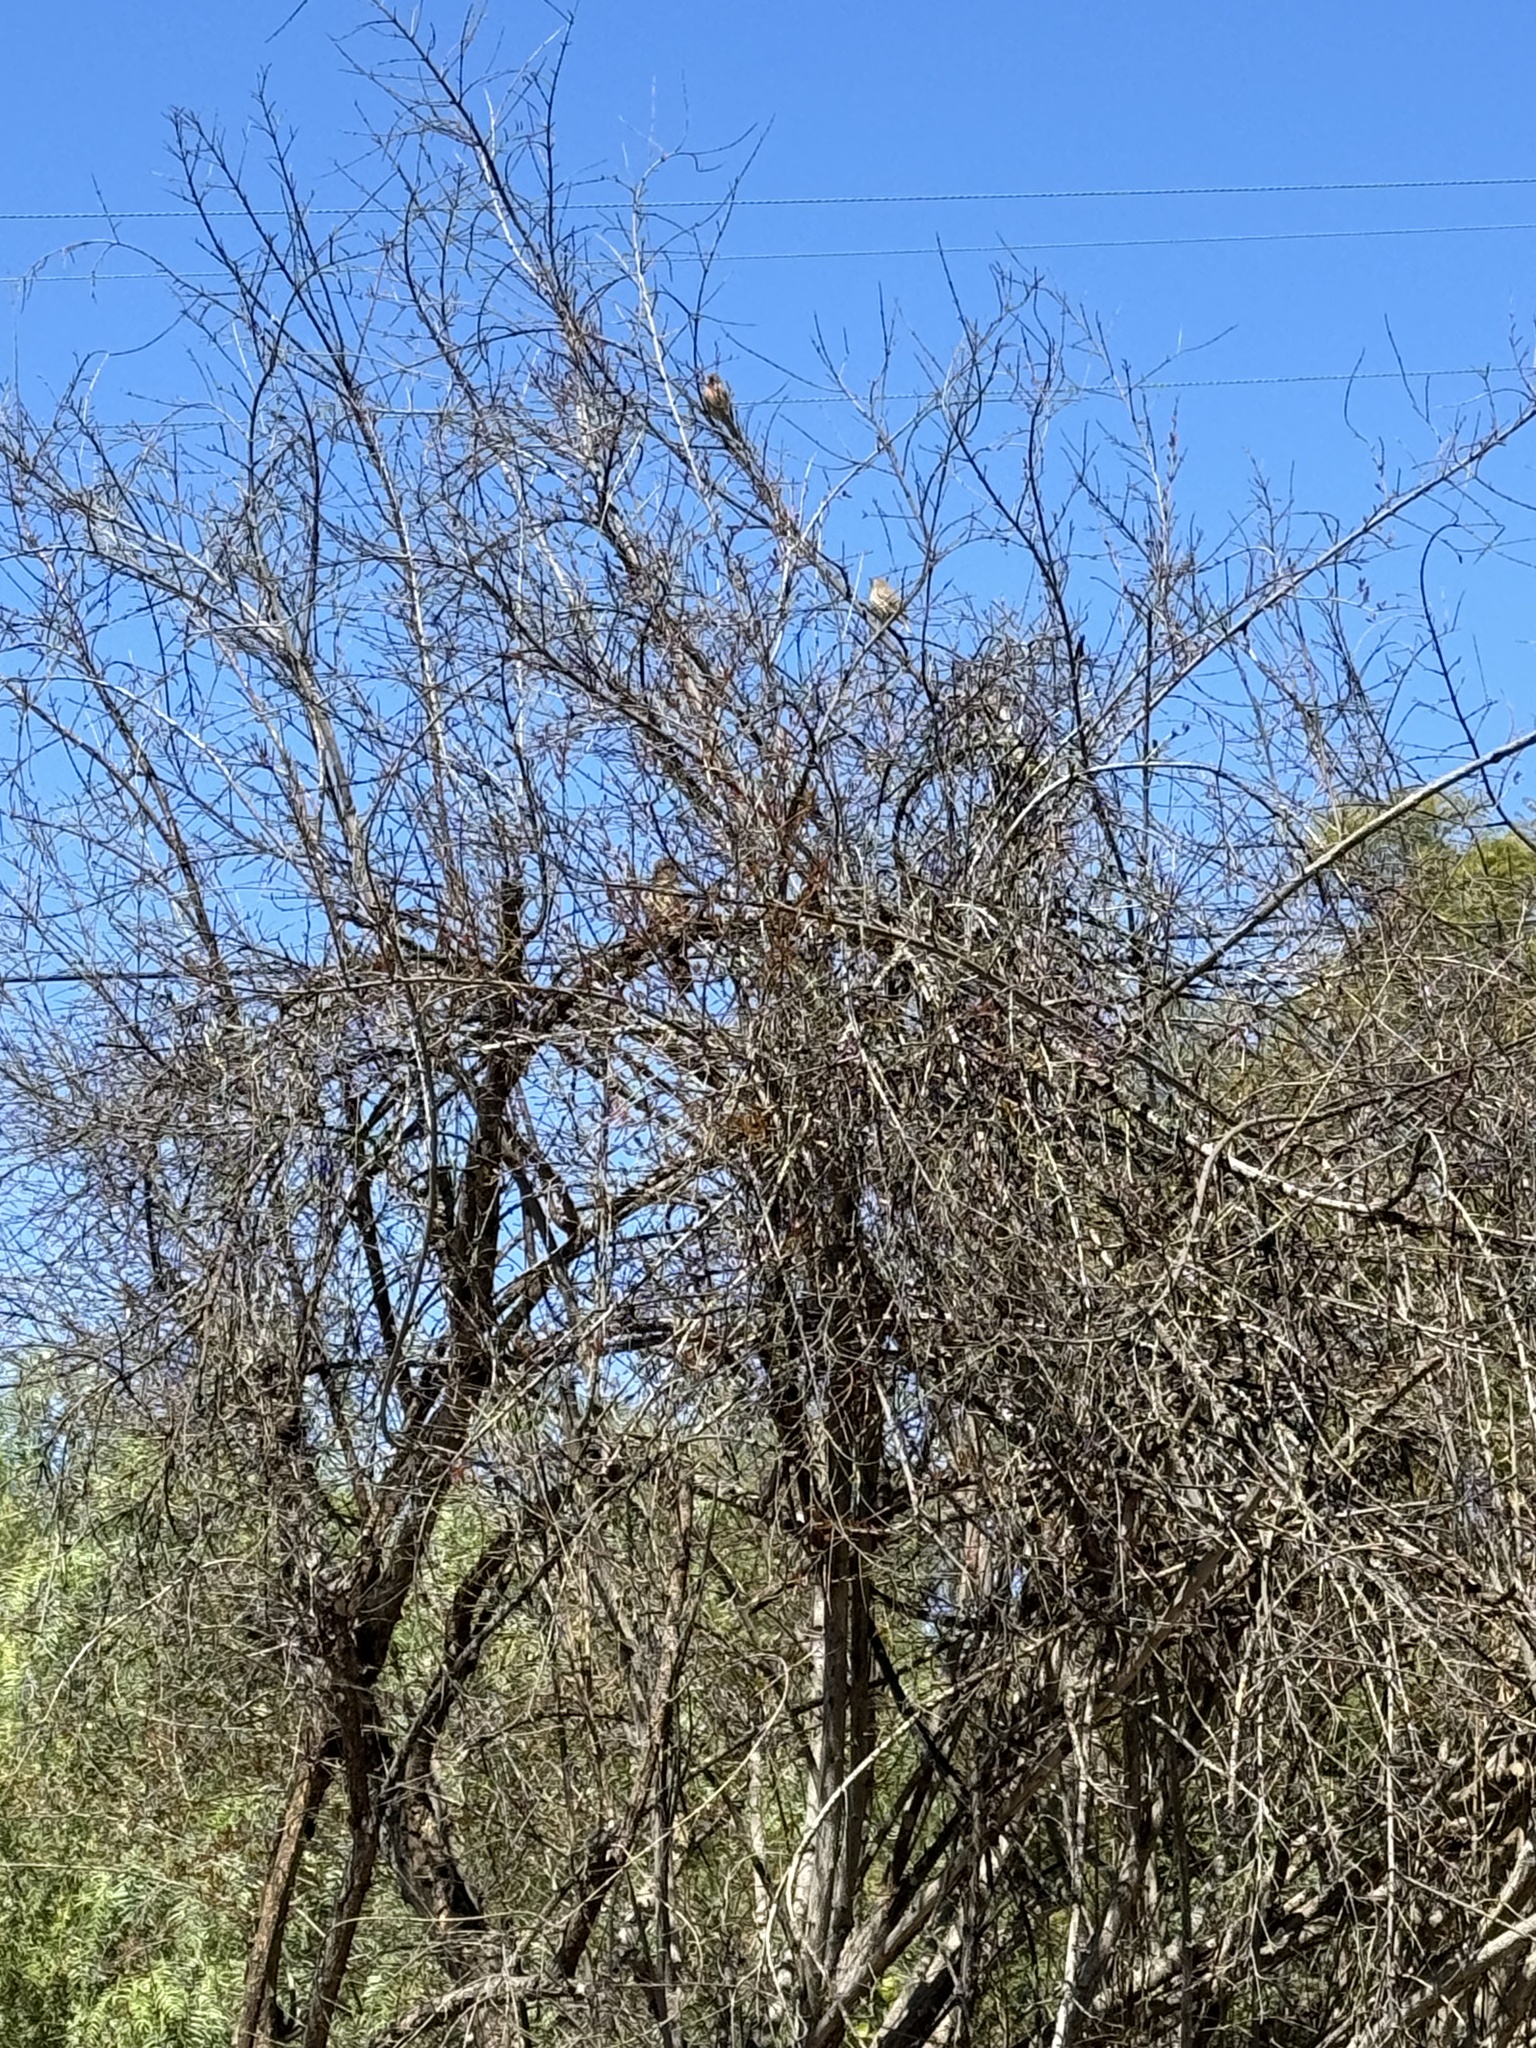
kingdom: Animalia
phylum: Chordata
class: Aves
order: Passeriformes
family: Passerellidae
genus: Melozone
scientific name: Melozone crissalis
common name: California towhee
